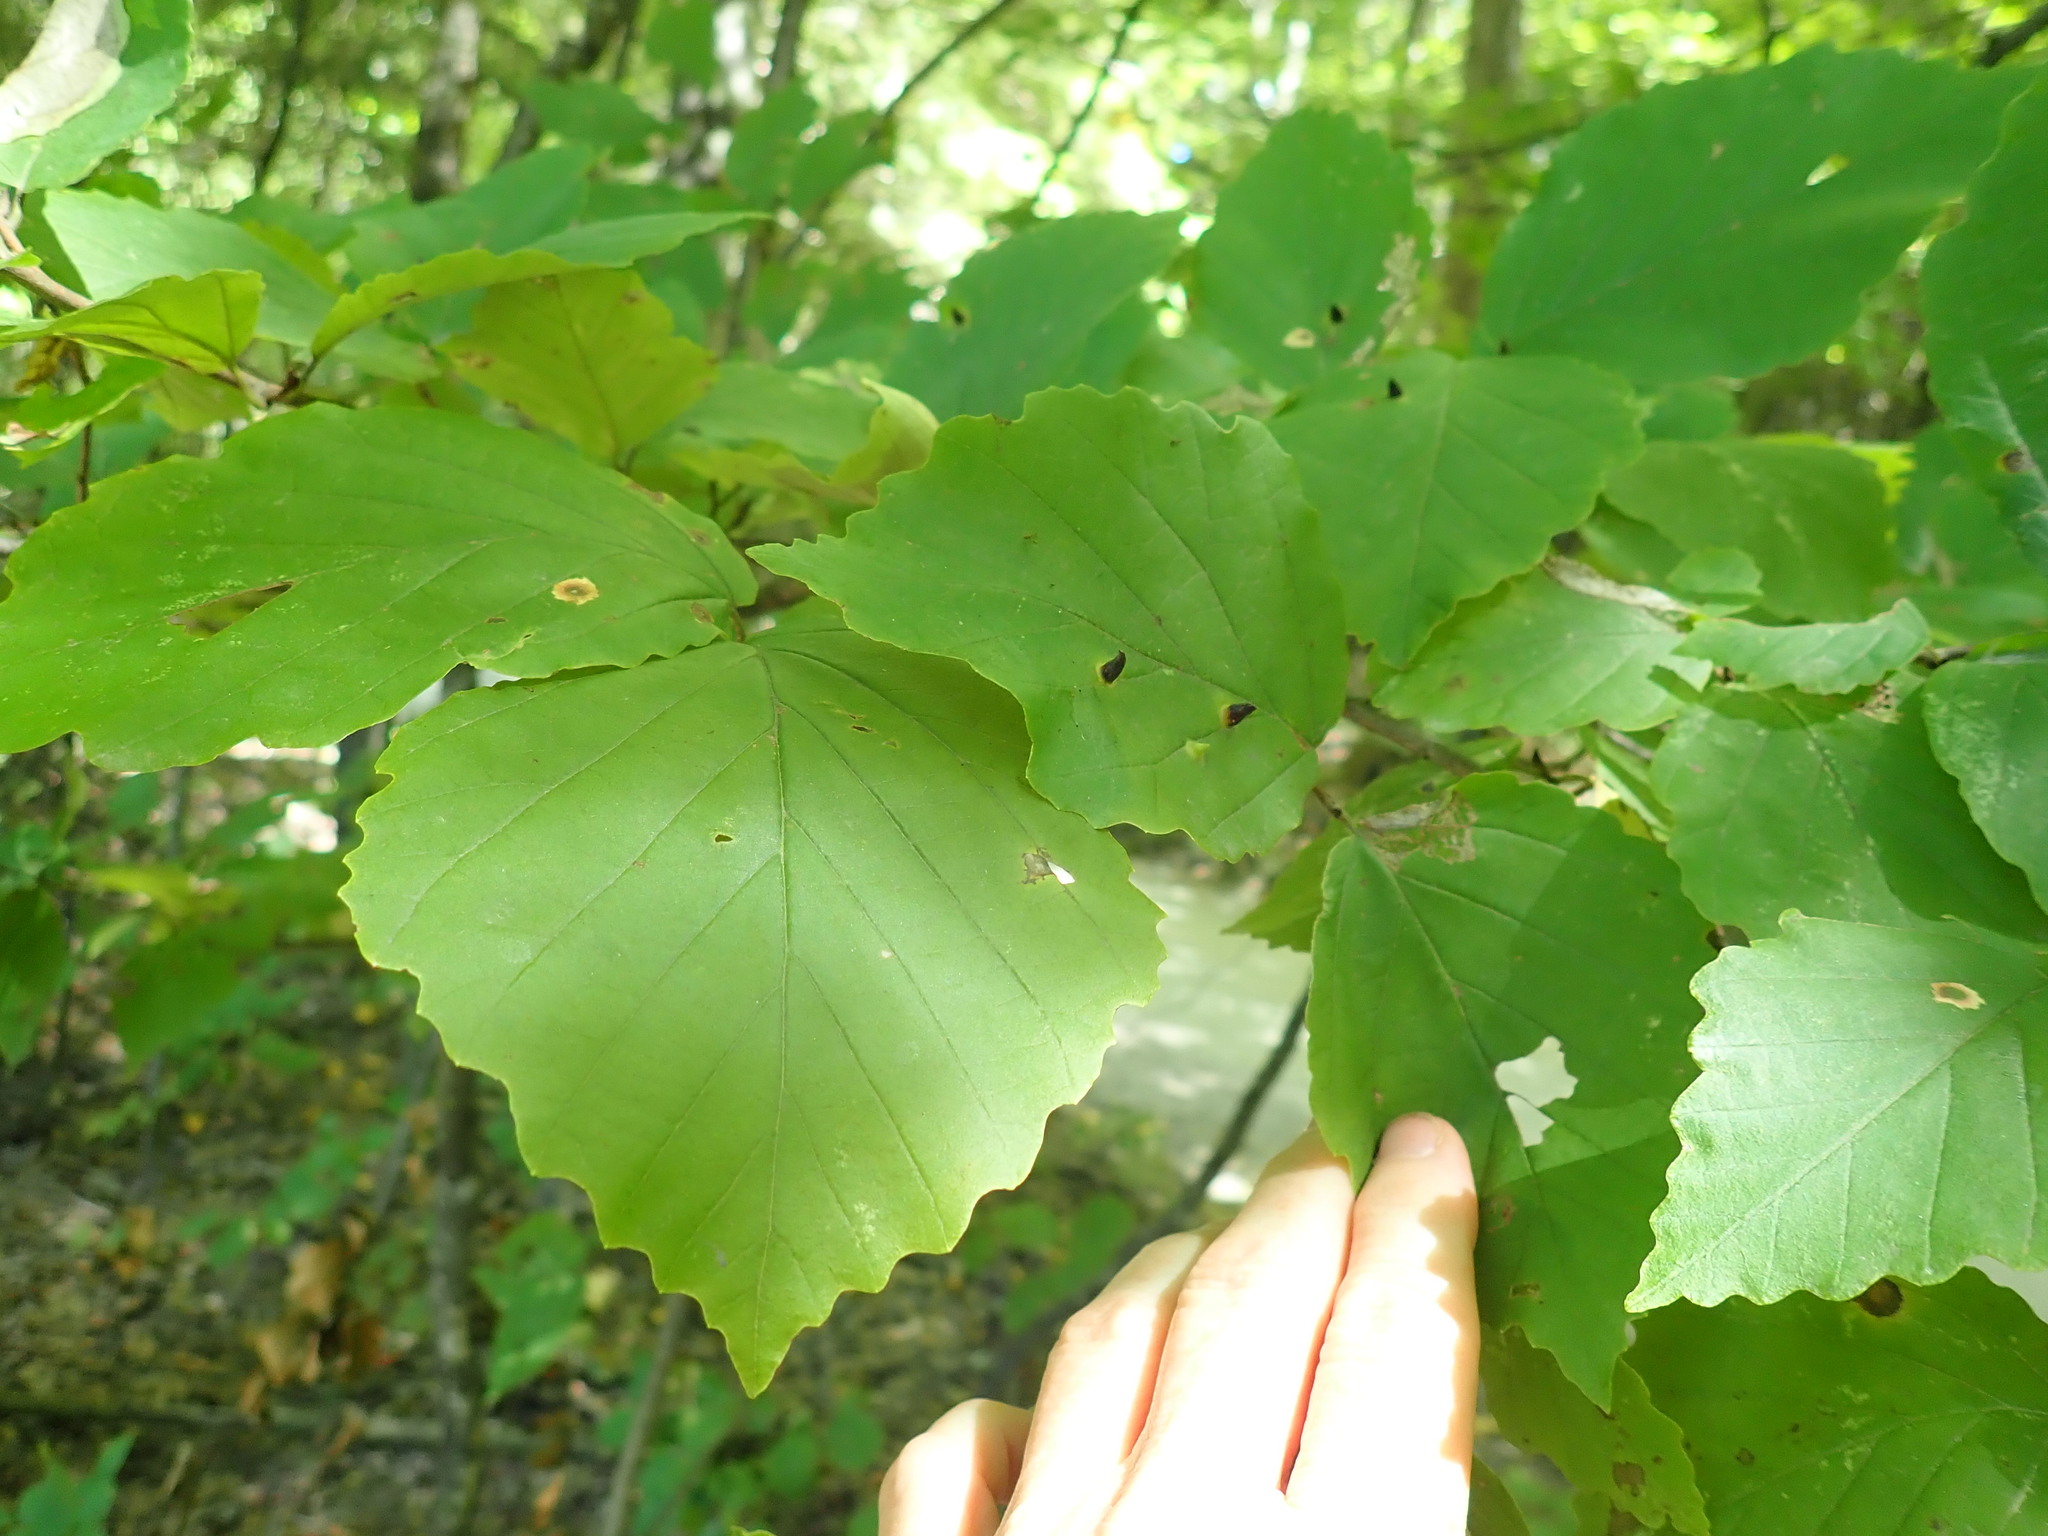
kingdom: Animalia
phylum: Arthropoda
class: Insecta
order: Hemiptera
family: Aphididae
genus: Hormaphis
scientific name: Hormaphis hamamelidis
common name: Witch-hazel cone gall aphid
